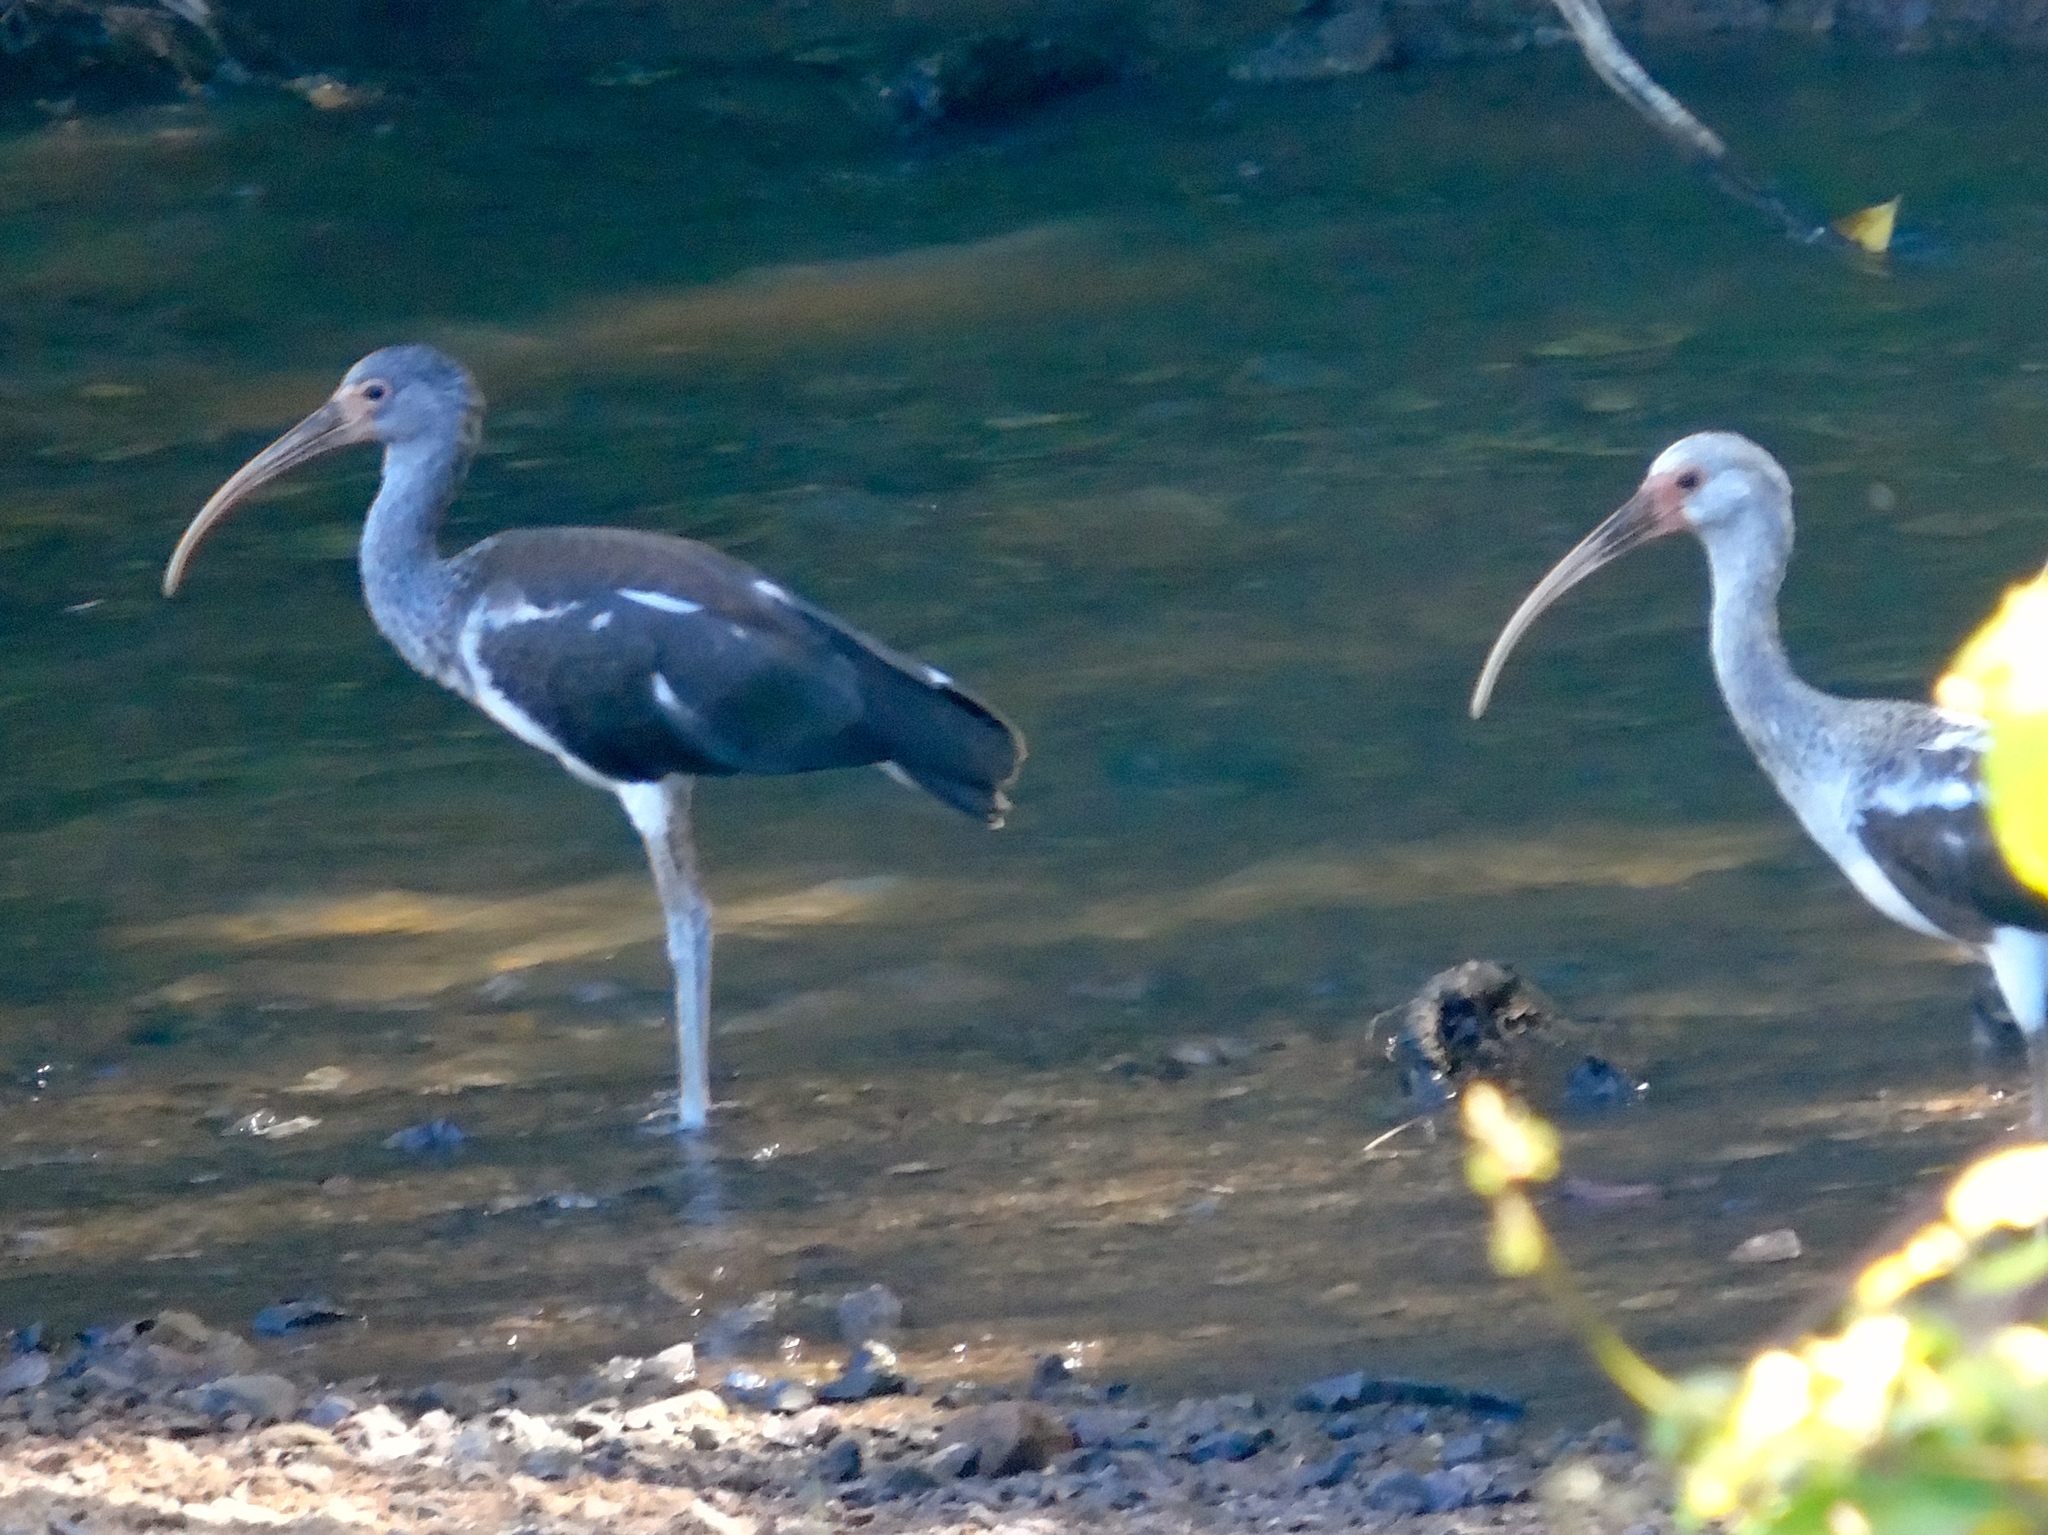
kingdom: Animalia
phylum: Chordata
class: Aves
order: Pelecaniformes
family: Threskiornithidae
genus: Eudocimus
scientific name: Eudocimus albus
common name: White ibis
